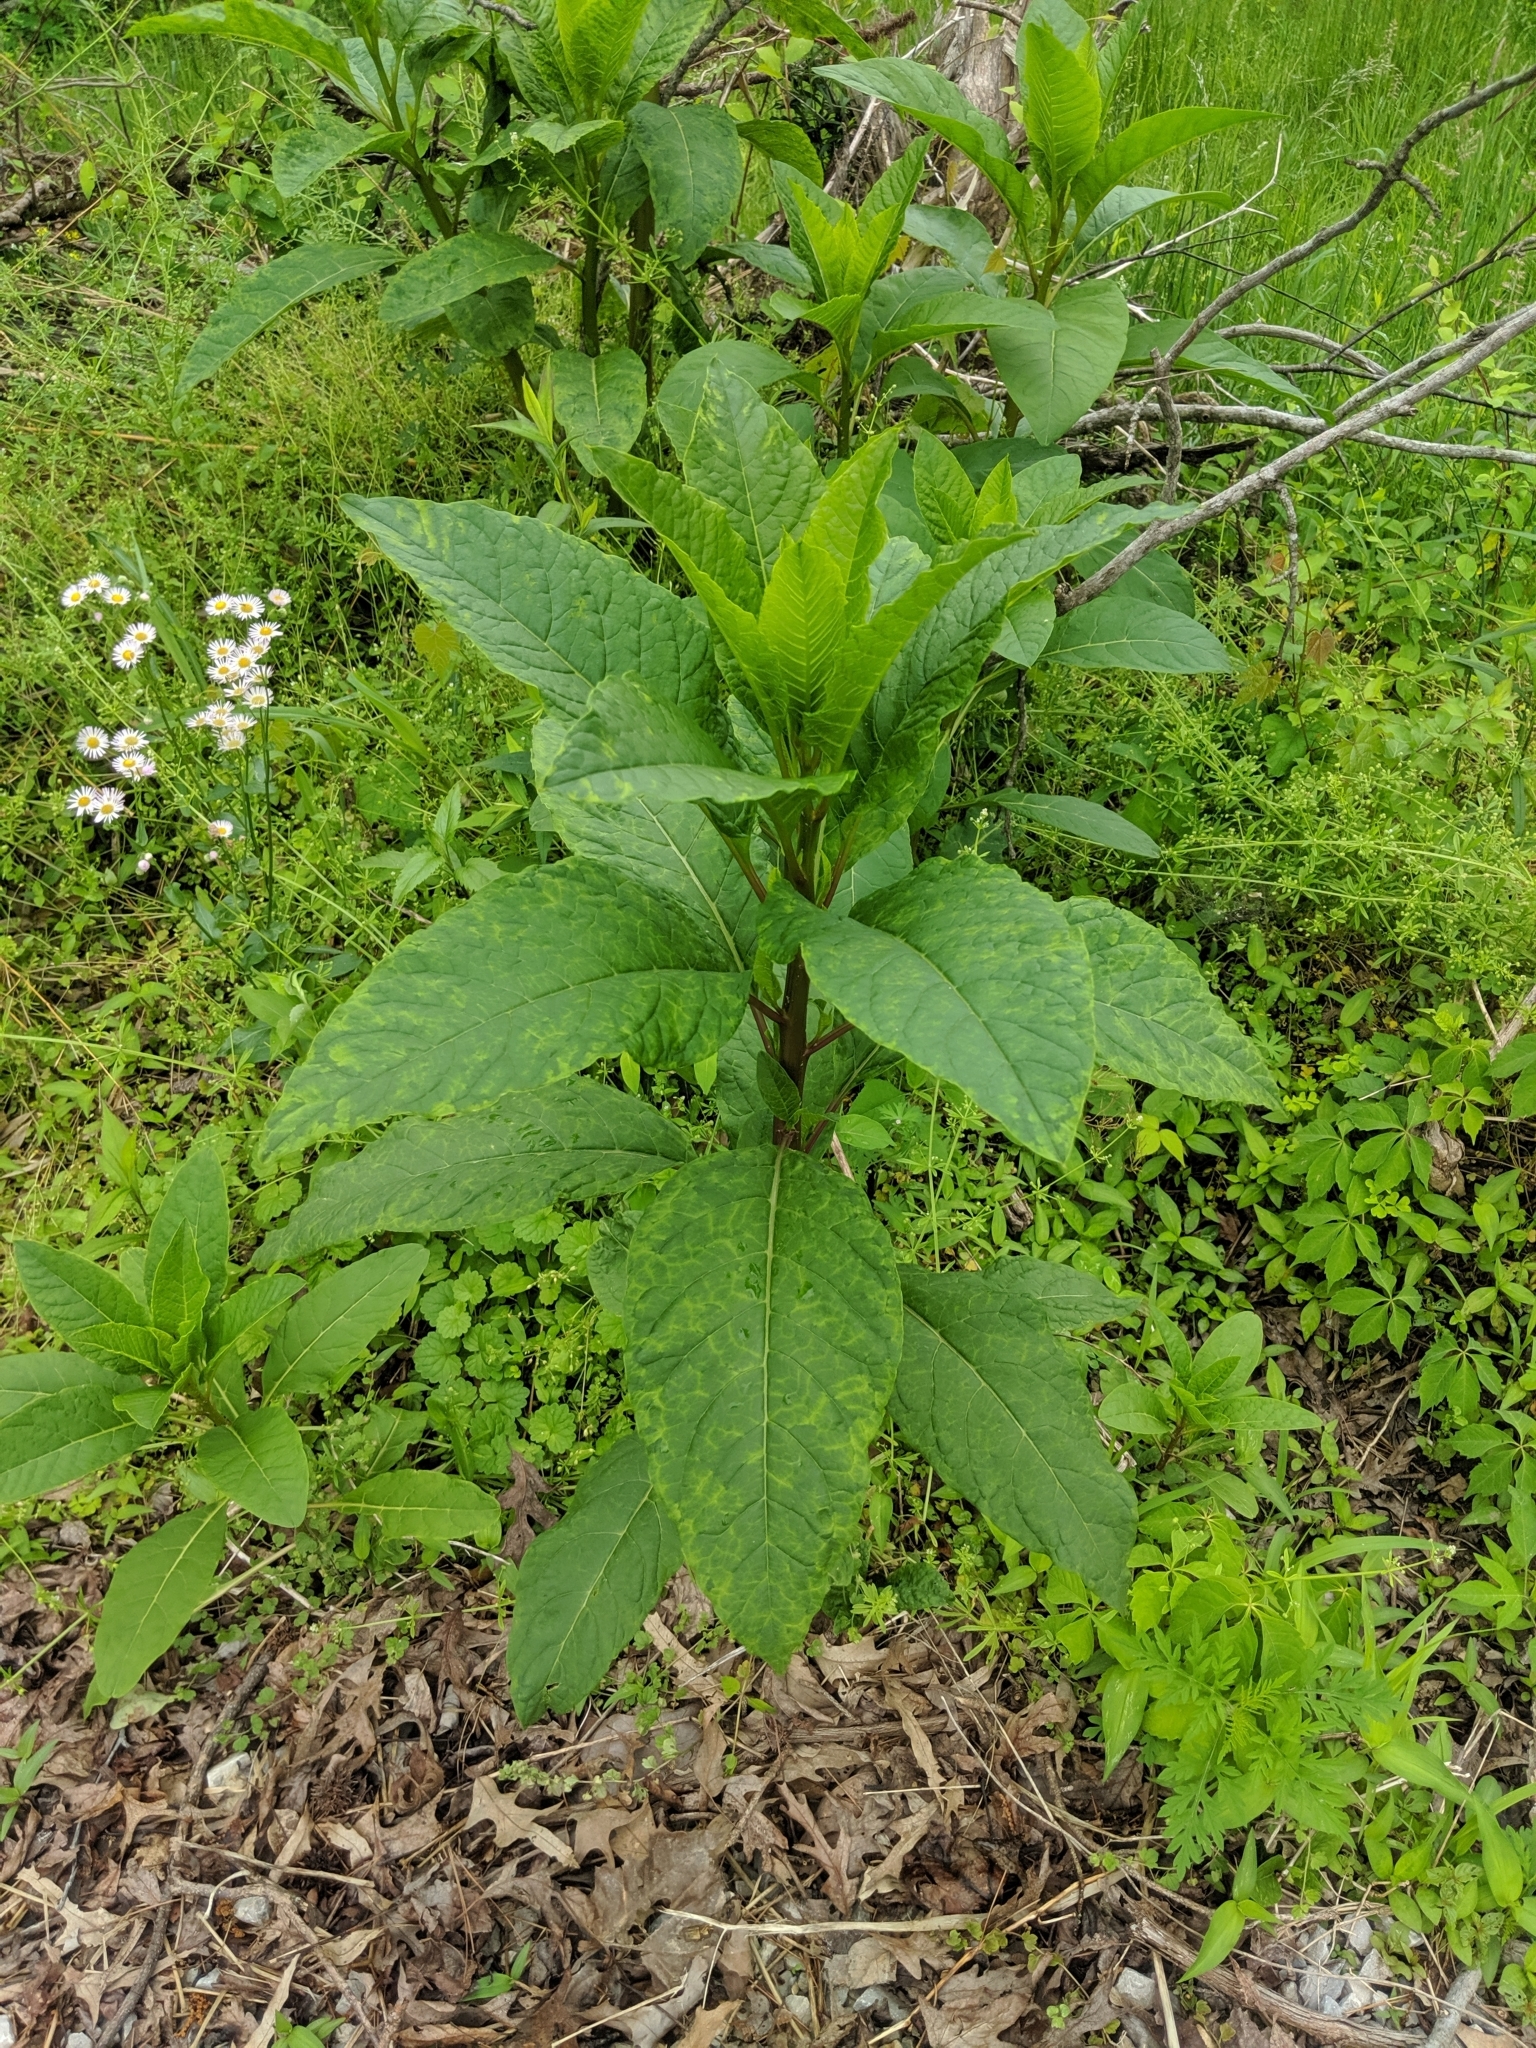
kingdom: Plantae
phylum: Tracheophyta
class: Magnoliopsida
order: Caryophyllales
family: Phytolaccaceae
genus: Phytolacca
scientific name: Phytolacca americana
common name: American pokeweed
